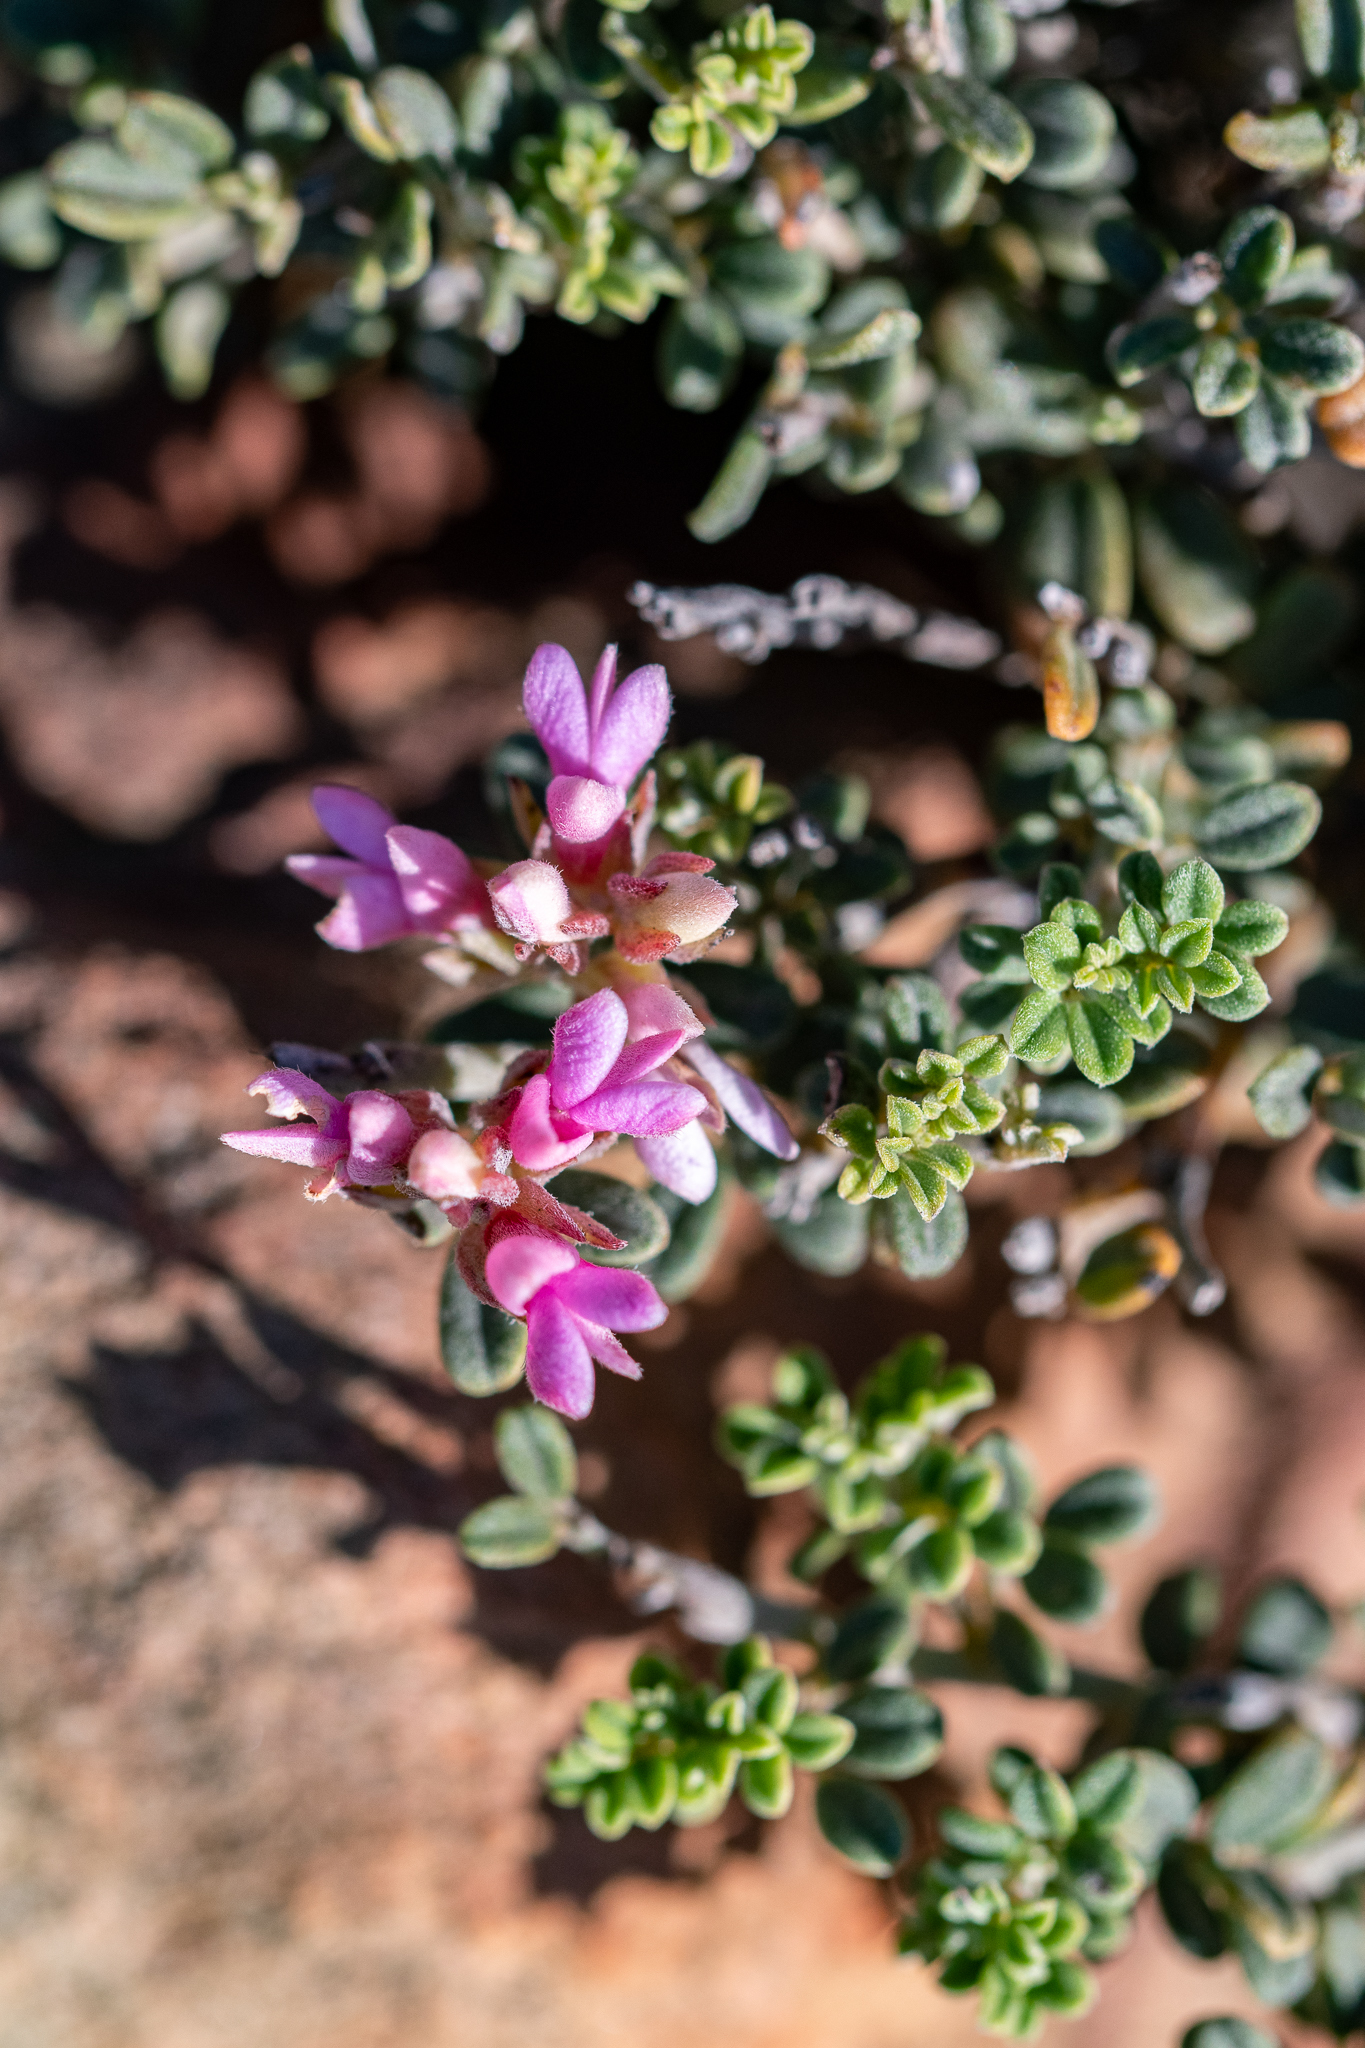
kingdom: Plantae
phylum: Tracheophyta
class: Magnoliopsida
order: Fabales
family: Fabaceae
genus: Indigofera
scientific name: Indigofera brachystachya
